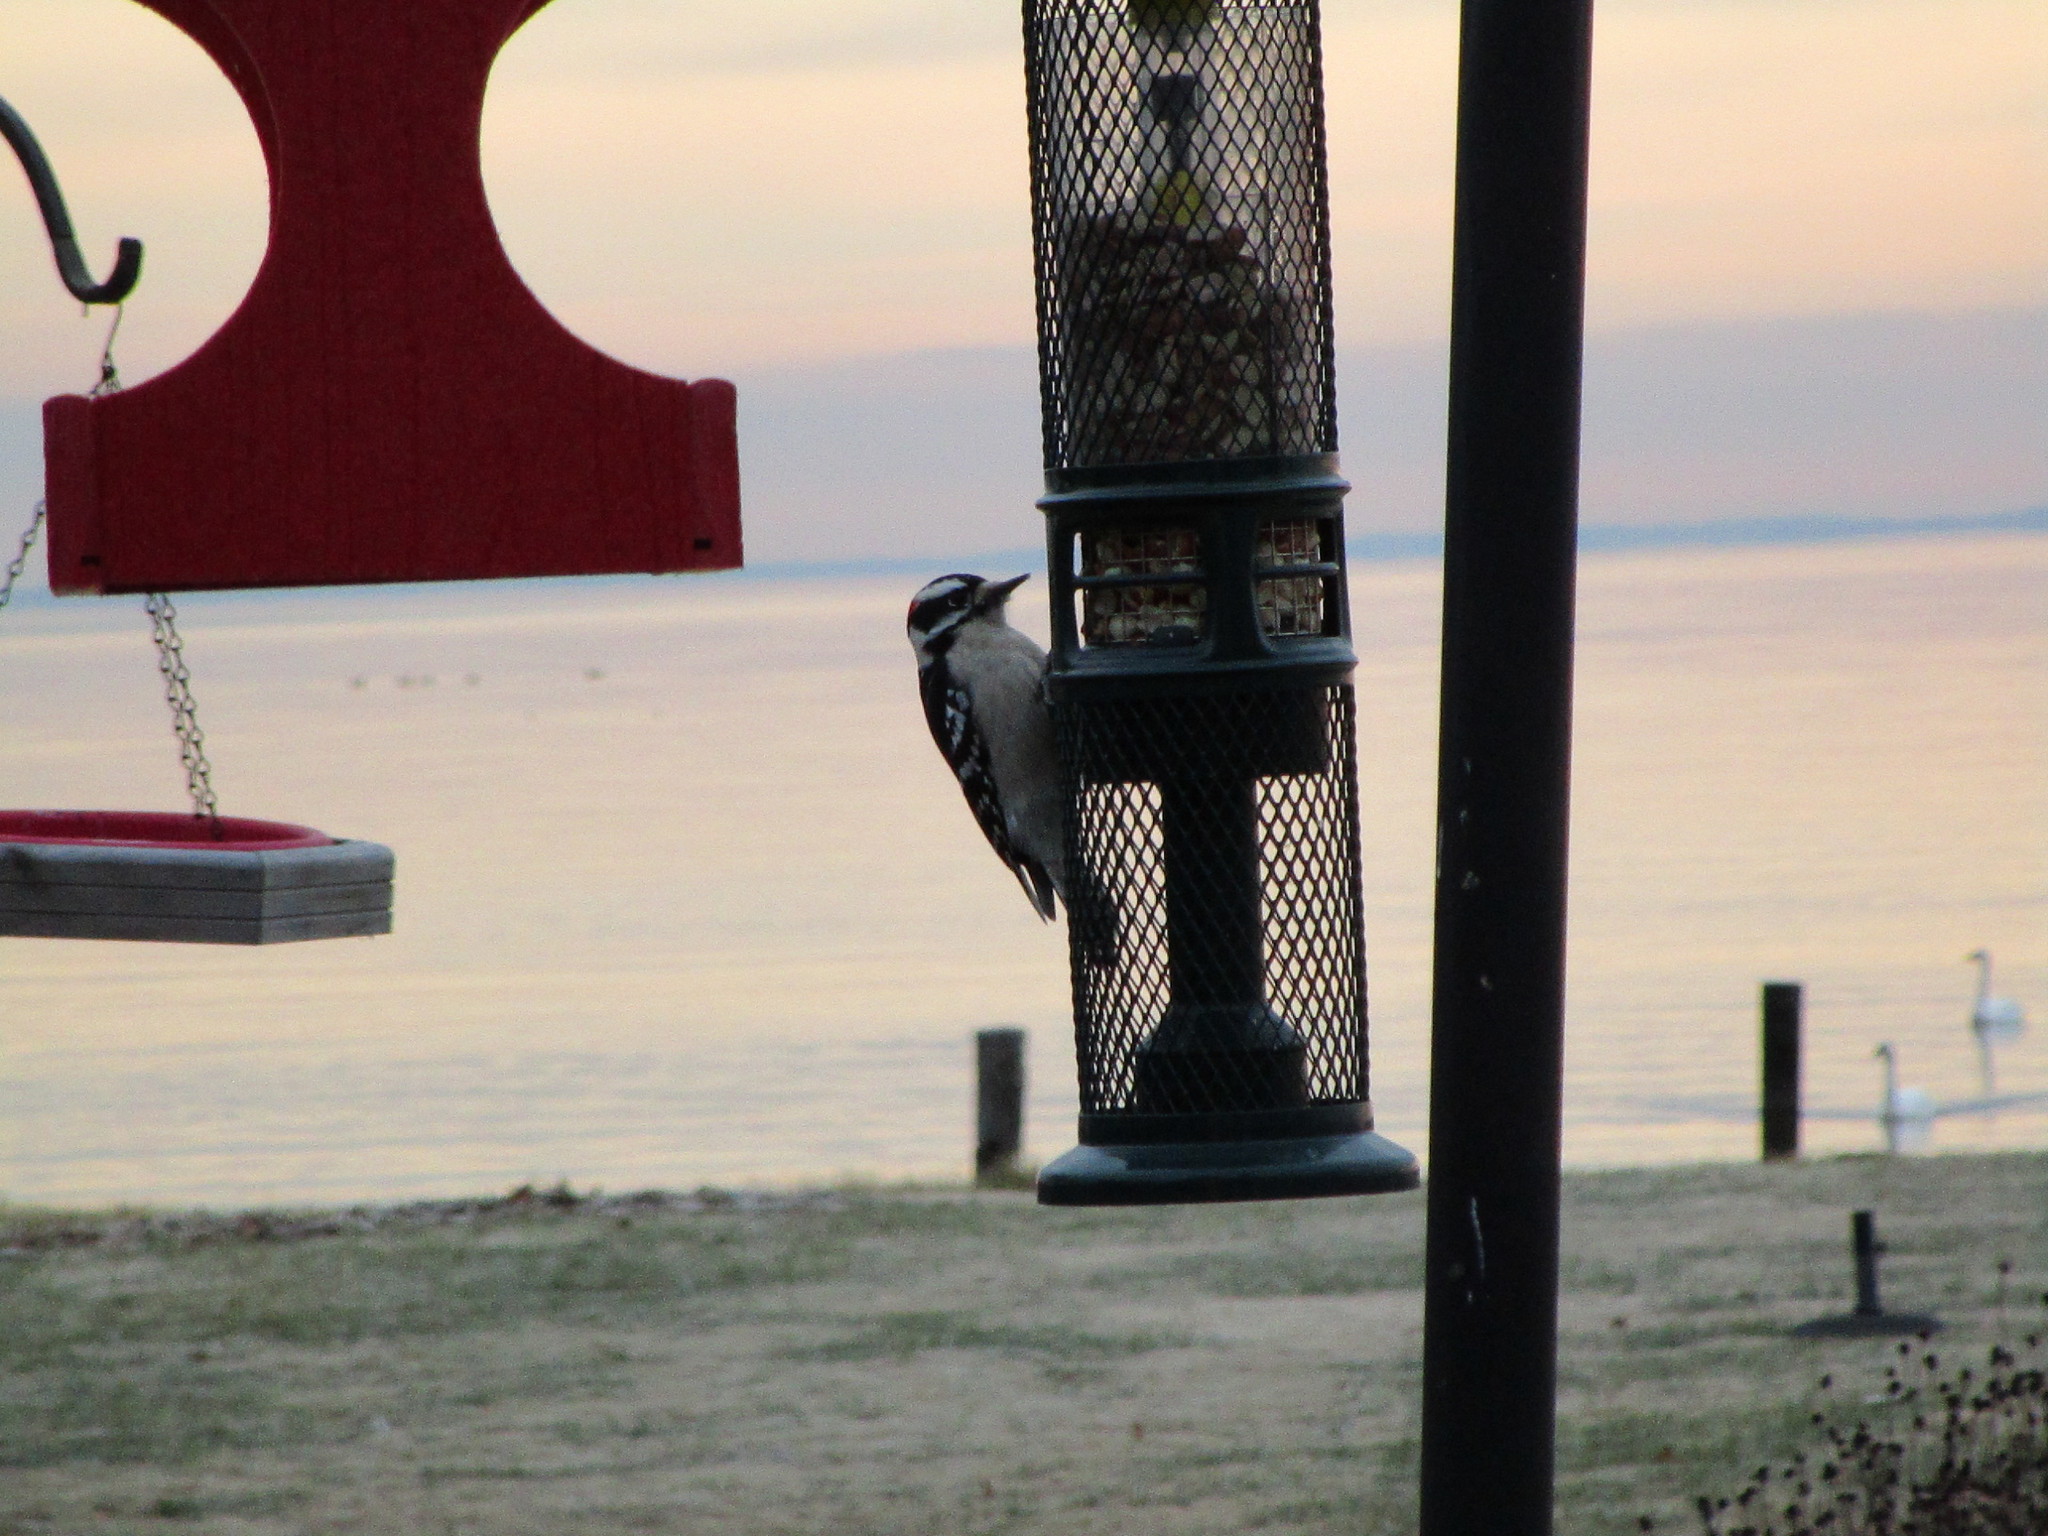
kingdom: Animalia
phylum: Chordata
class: Aves
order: Piciformes
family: Picidae
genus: Dryobates
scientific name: Dryobates pubescens
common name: Downy woodpecker
